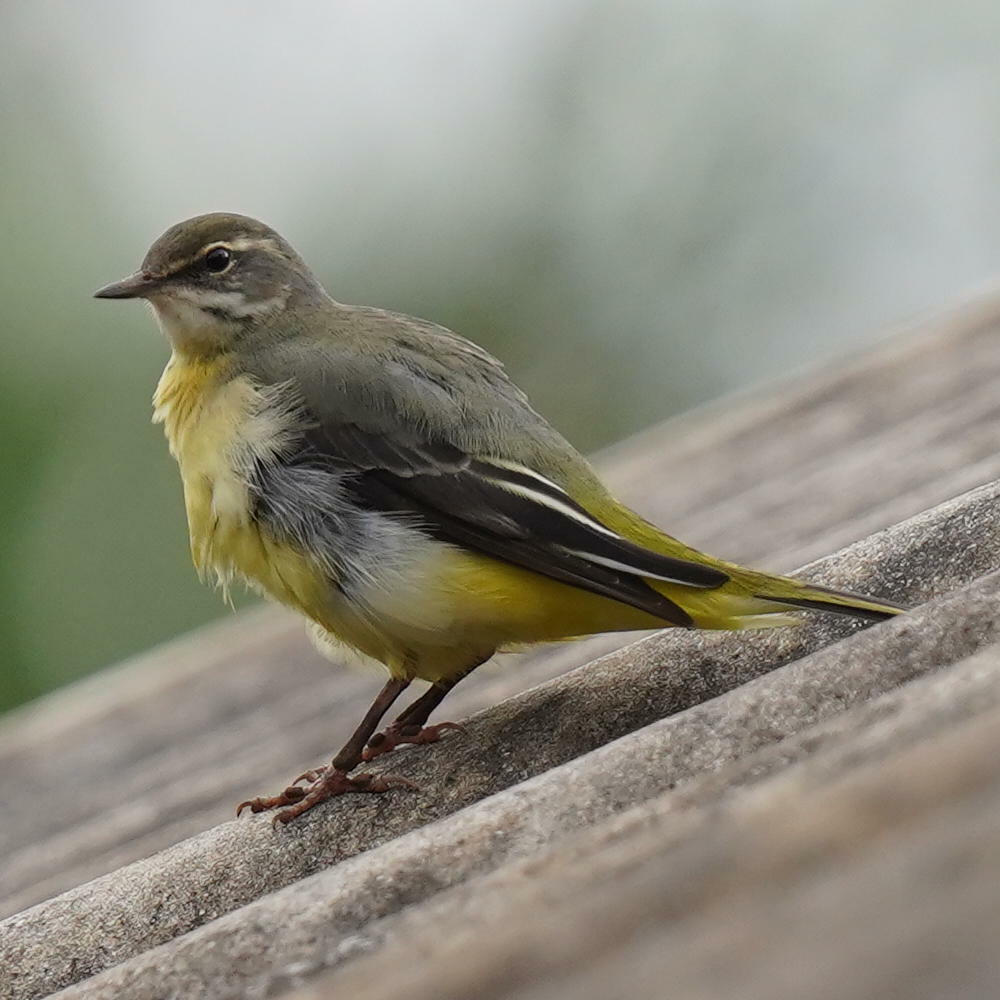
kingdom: Animalia
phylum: Chordata
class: Aves
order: Passeriformes
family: Motacillidae
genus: Motacilla
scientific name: Motacilla cinerea
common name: Grey wagtail
